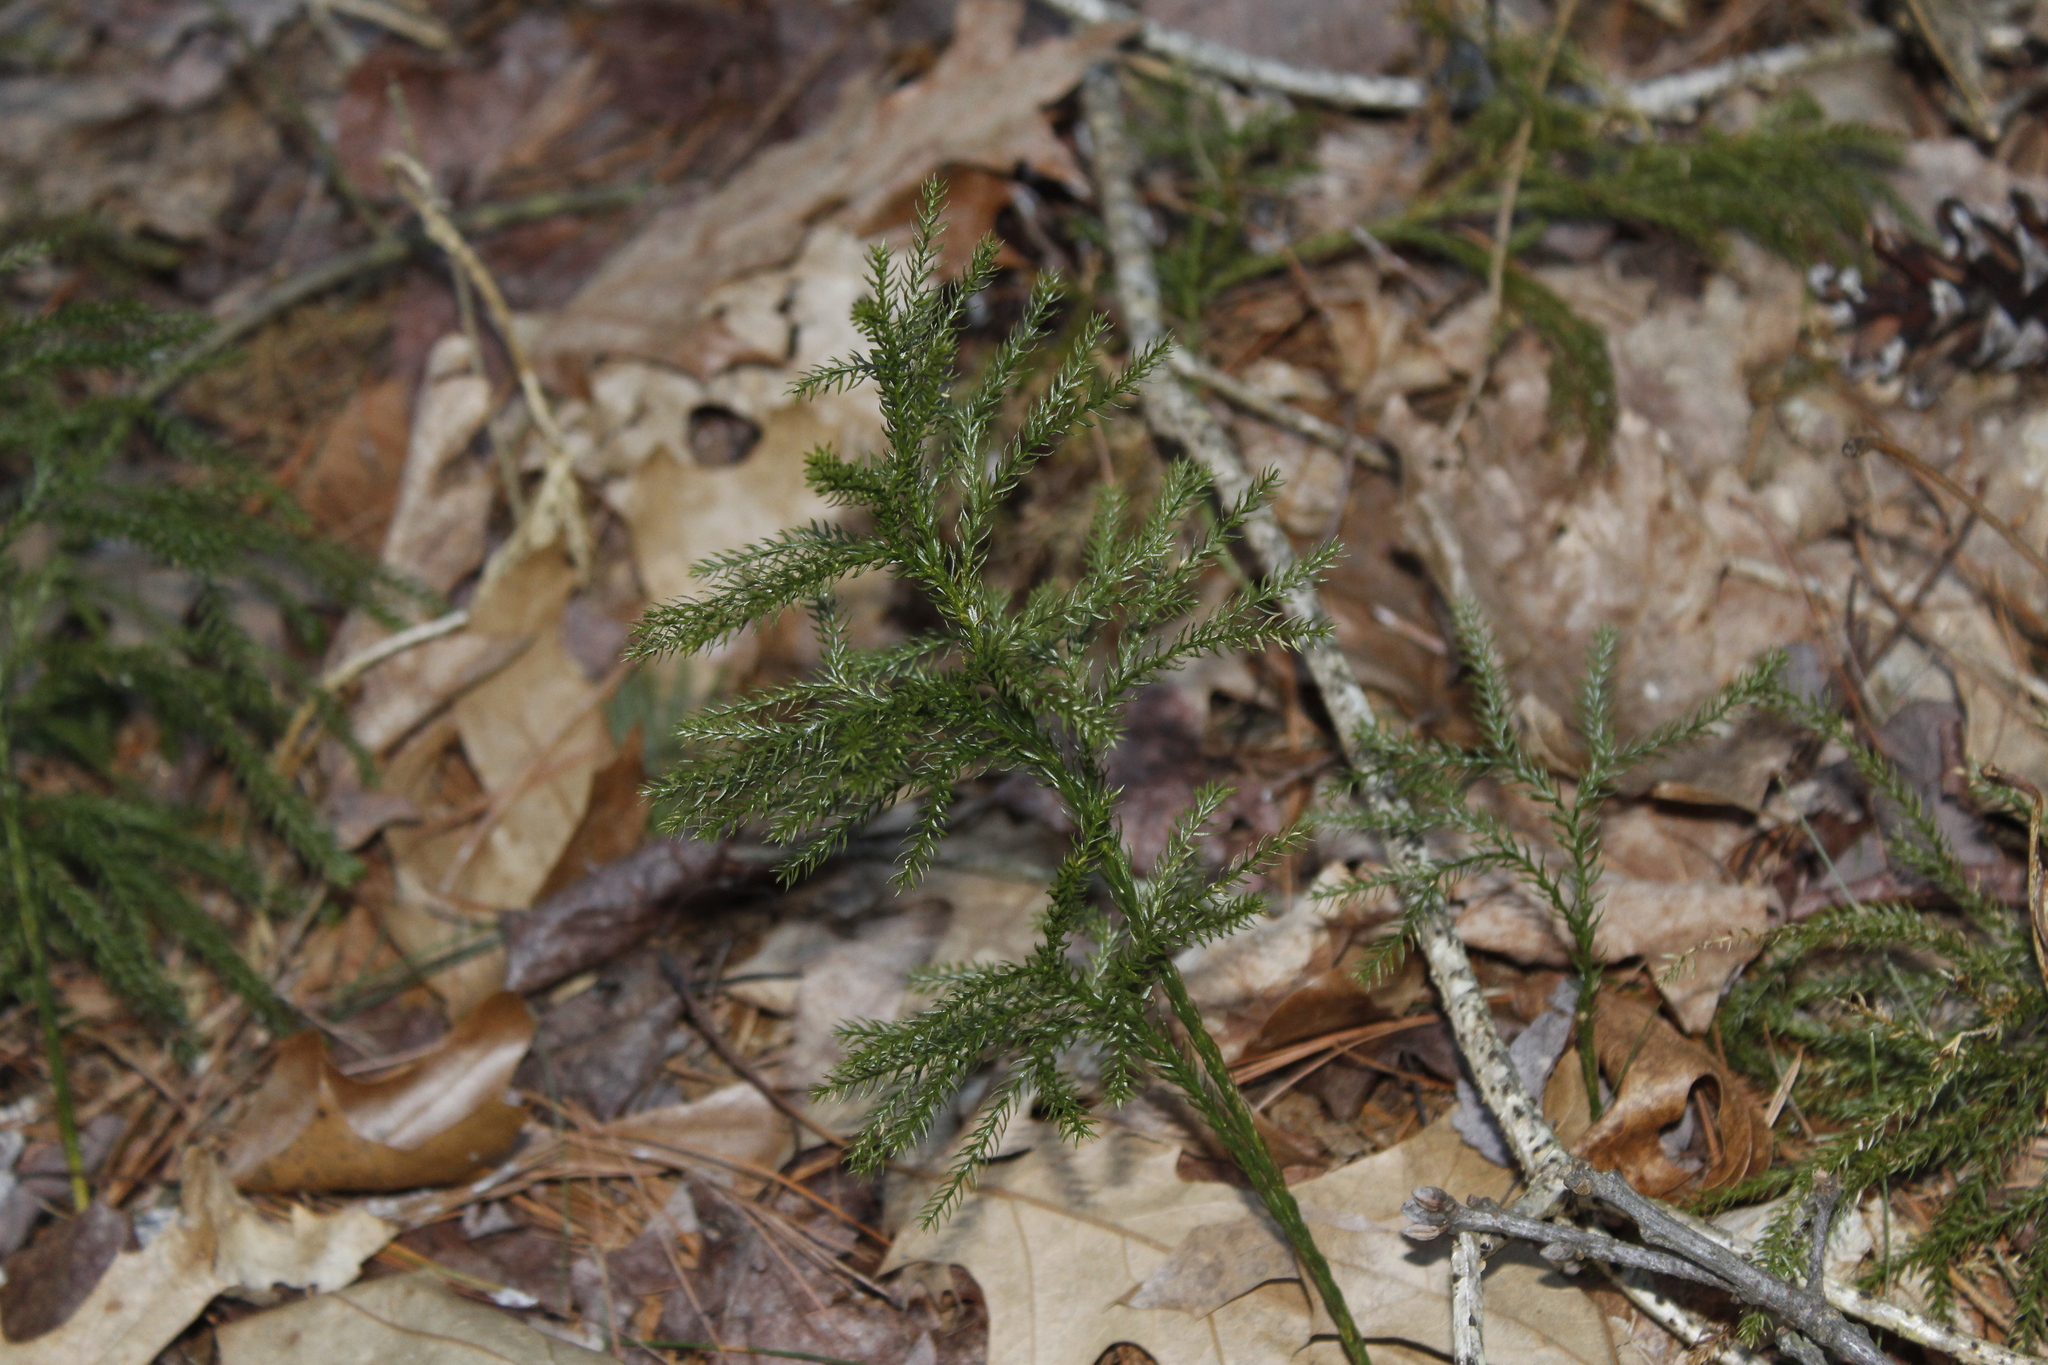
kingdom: Plantae
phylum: Tracheophyta
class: Lycopodiopsida
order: Lycopodiales
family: Lycopodiaceae
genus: Dendrolycopodium
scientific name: Dendrolycopodium obscurum
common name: Common ground-pine
